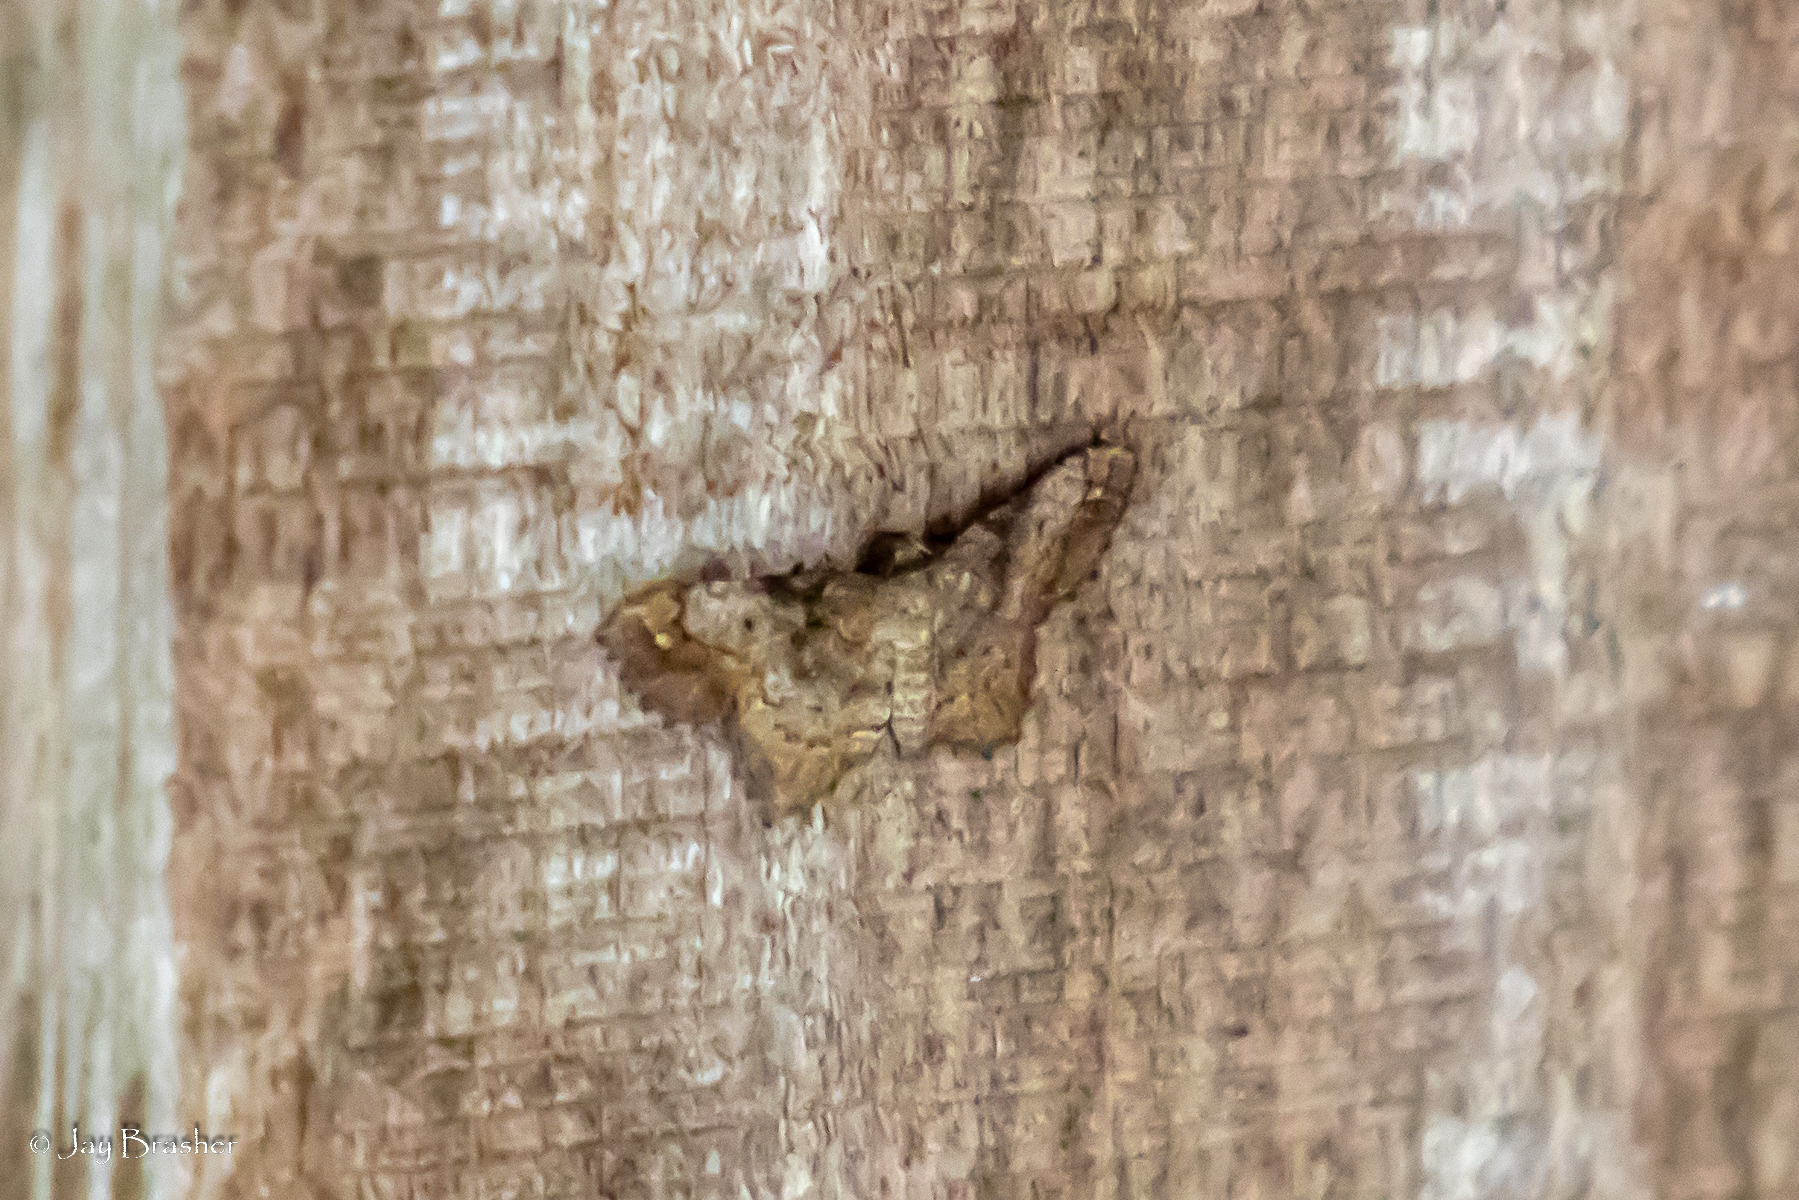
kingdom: Animalia
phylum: Arthropoda
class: Insecta
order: Lepidoptera
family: Geometridae
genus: Hypagyrtis
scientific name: Hypagyrtis esther
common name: Esther moth
